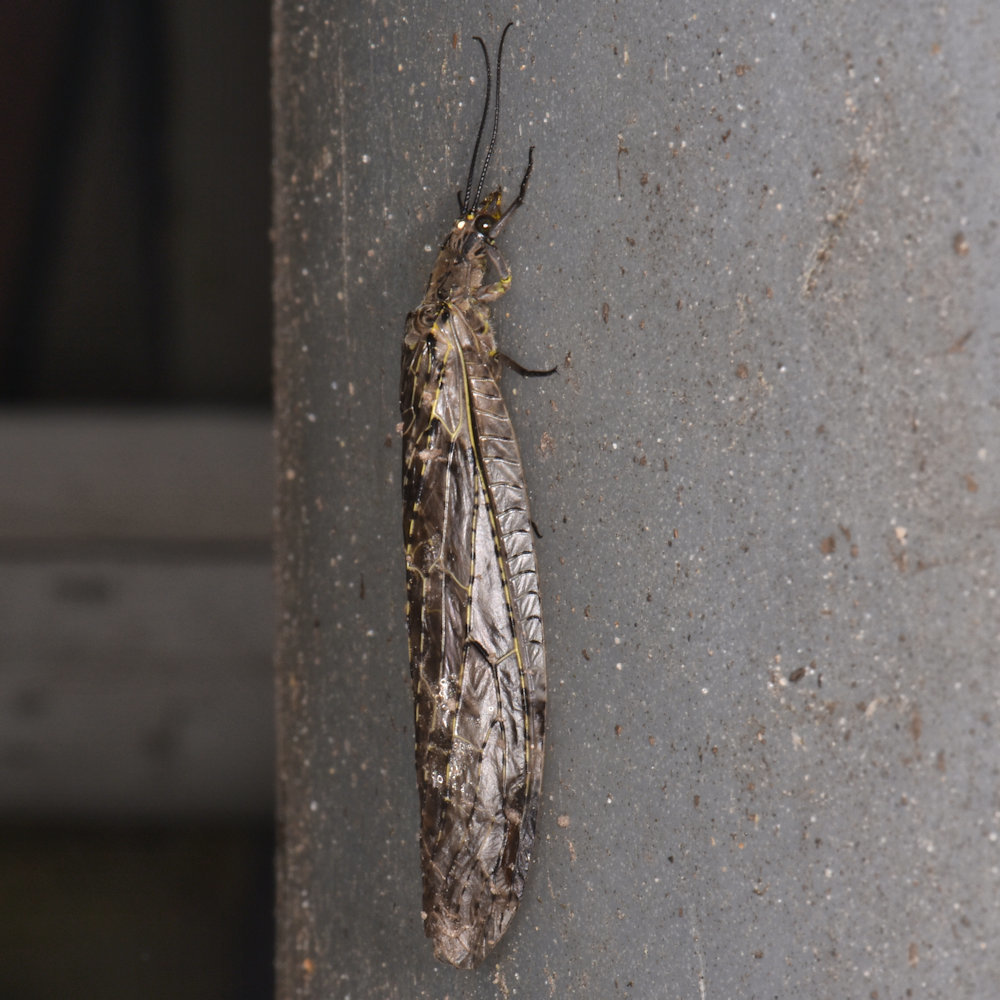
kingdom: Animalia
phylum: Arthropoda
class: Insecta
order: Megaloptera
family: Corydalidae
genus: Chauliodes
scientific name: Chauliodes rastricornis
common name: Spring fishfly
